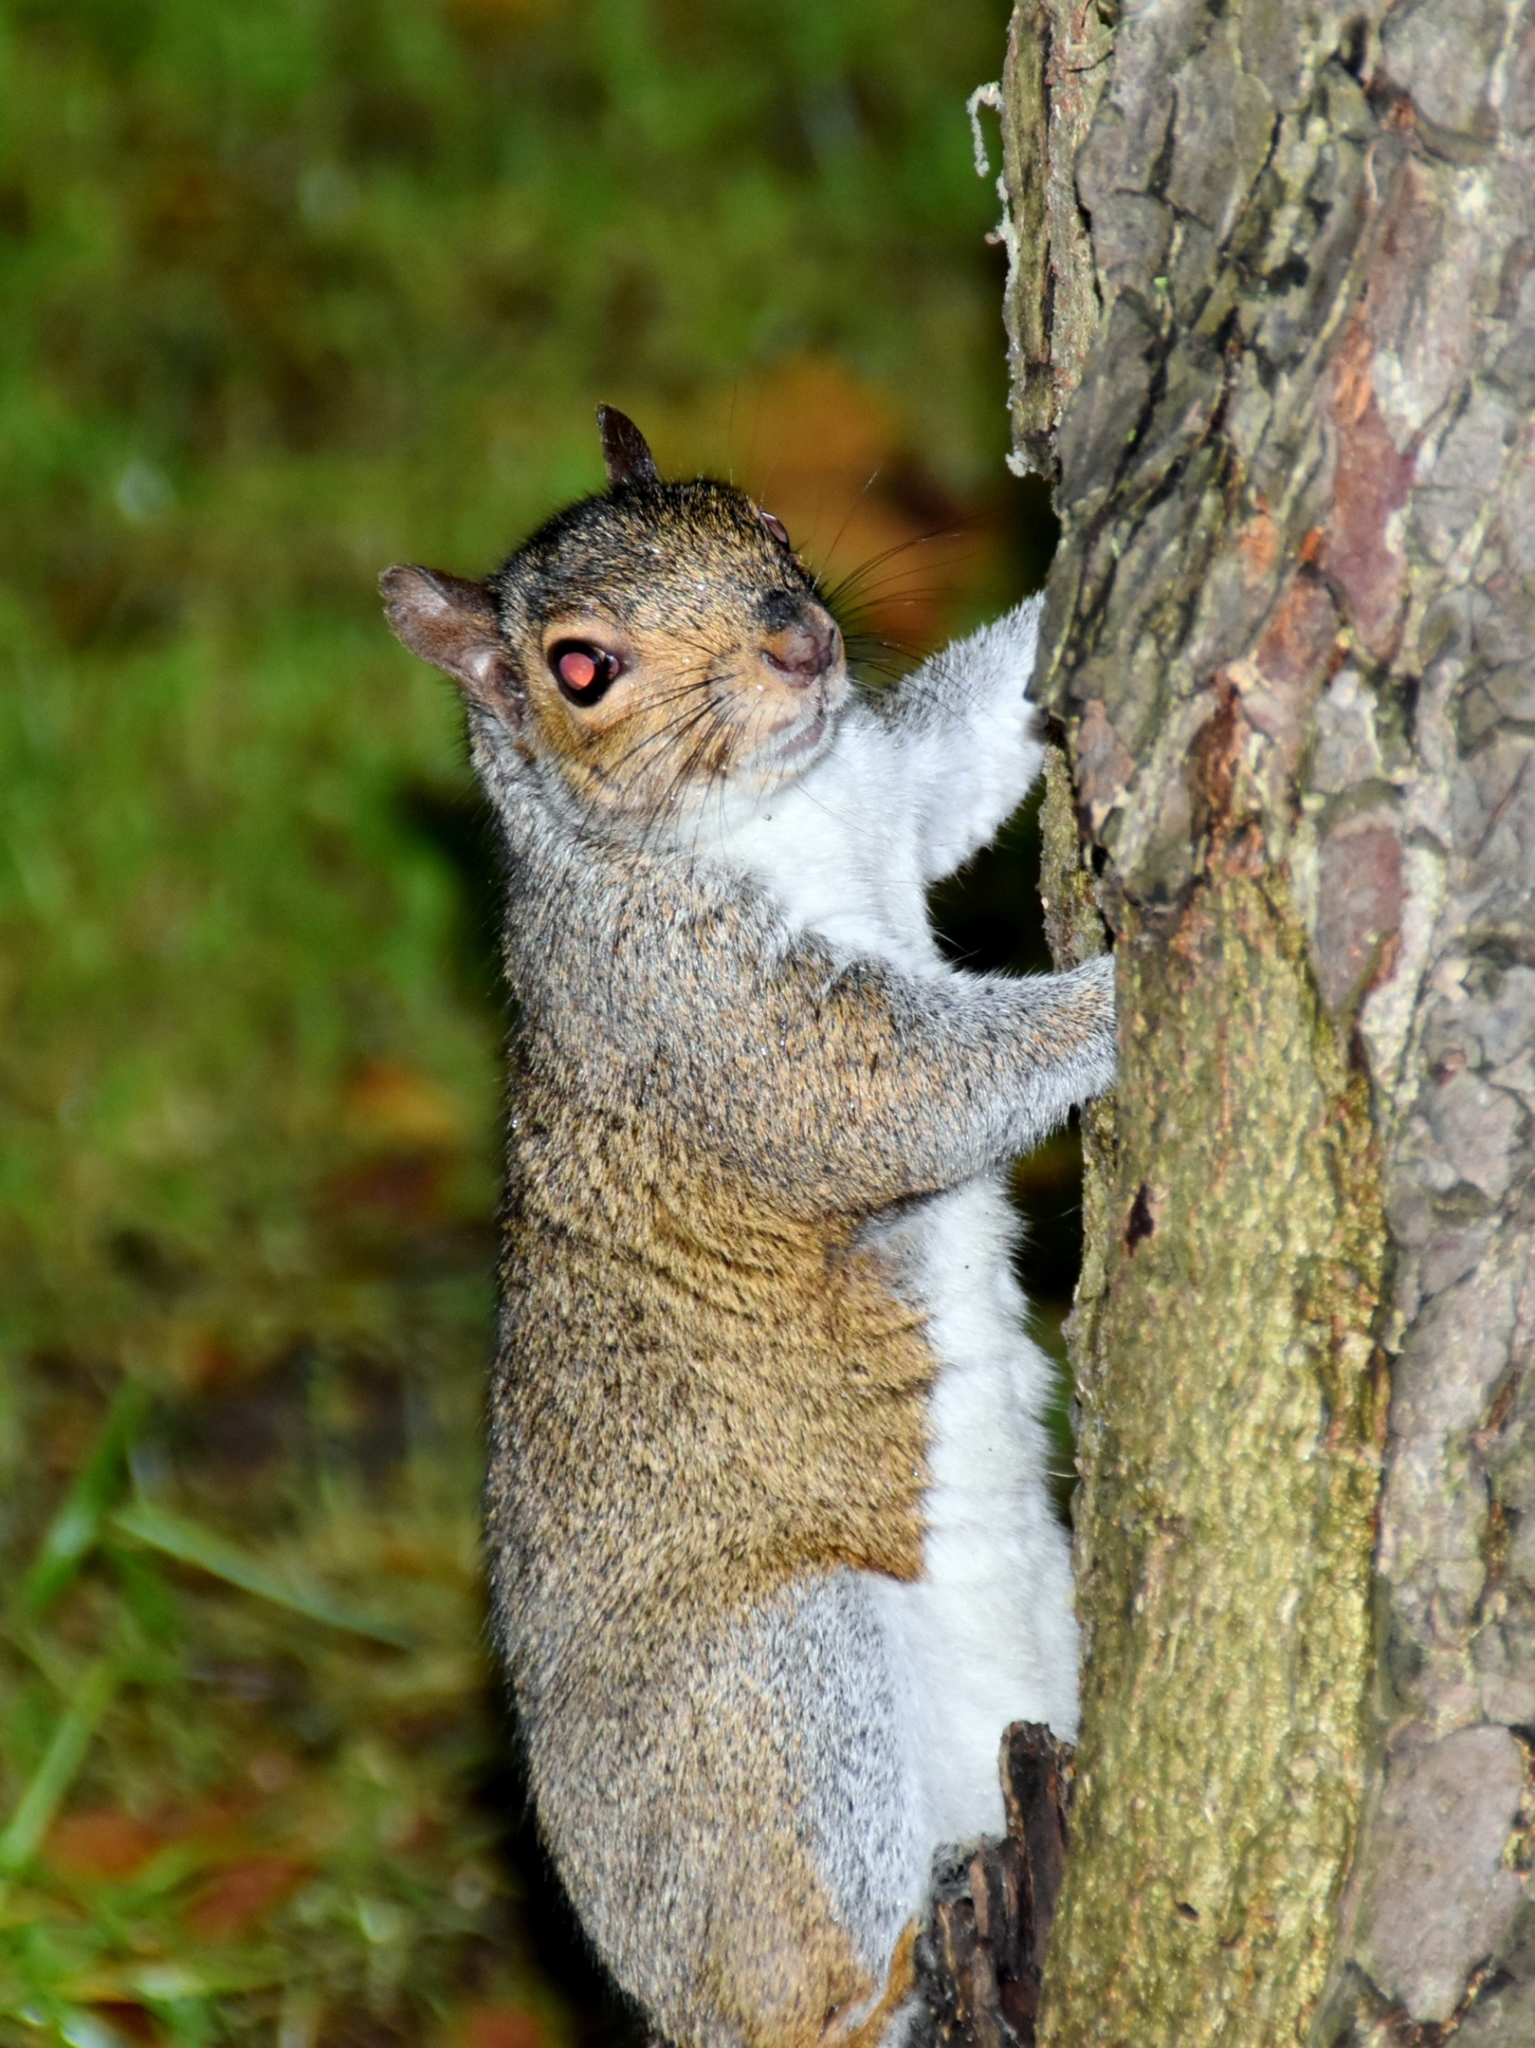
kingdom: Animalia
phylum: Chordata
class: Mammalia
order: Rodentia
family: Sciuridae
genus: Sciurus
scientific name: Sciurus carolinensis
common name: Eastern gray squirrel
